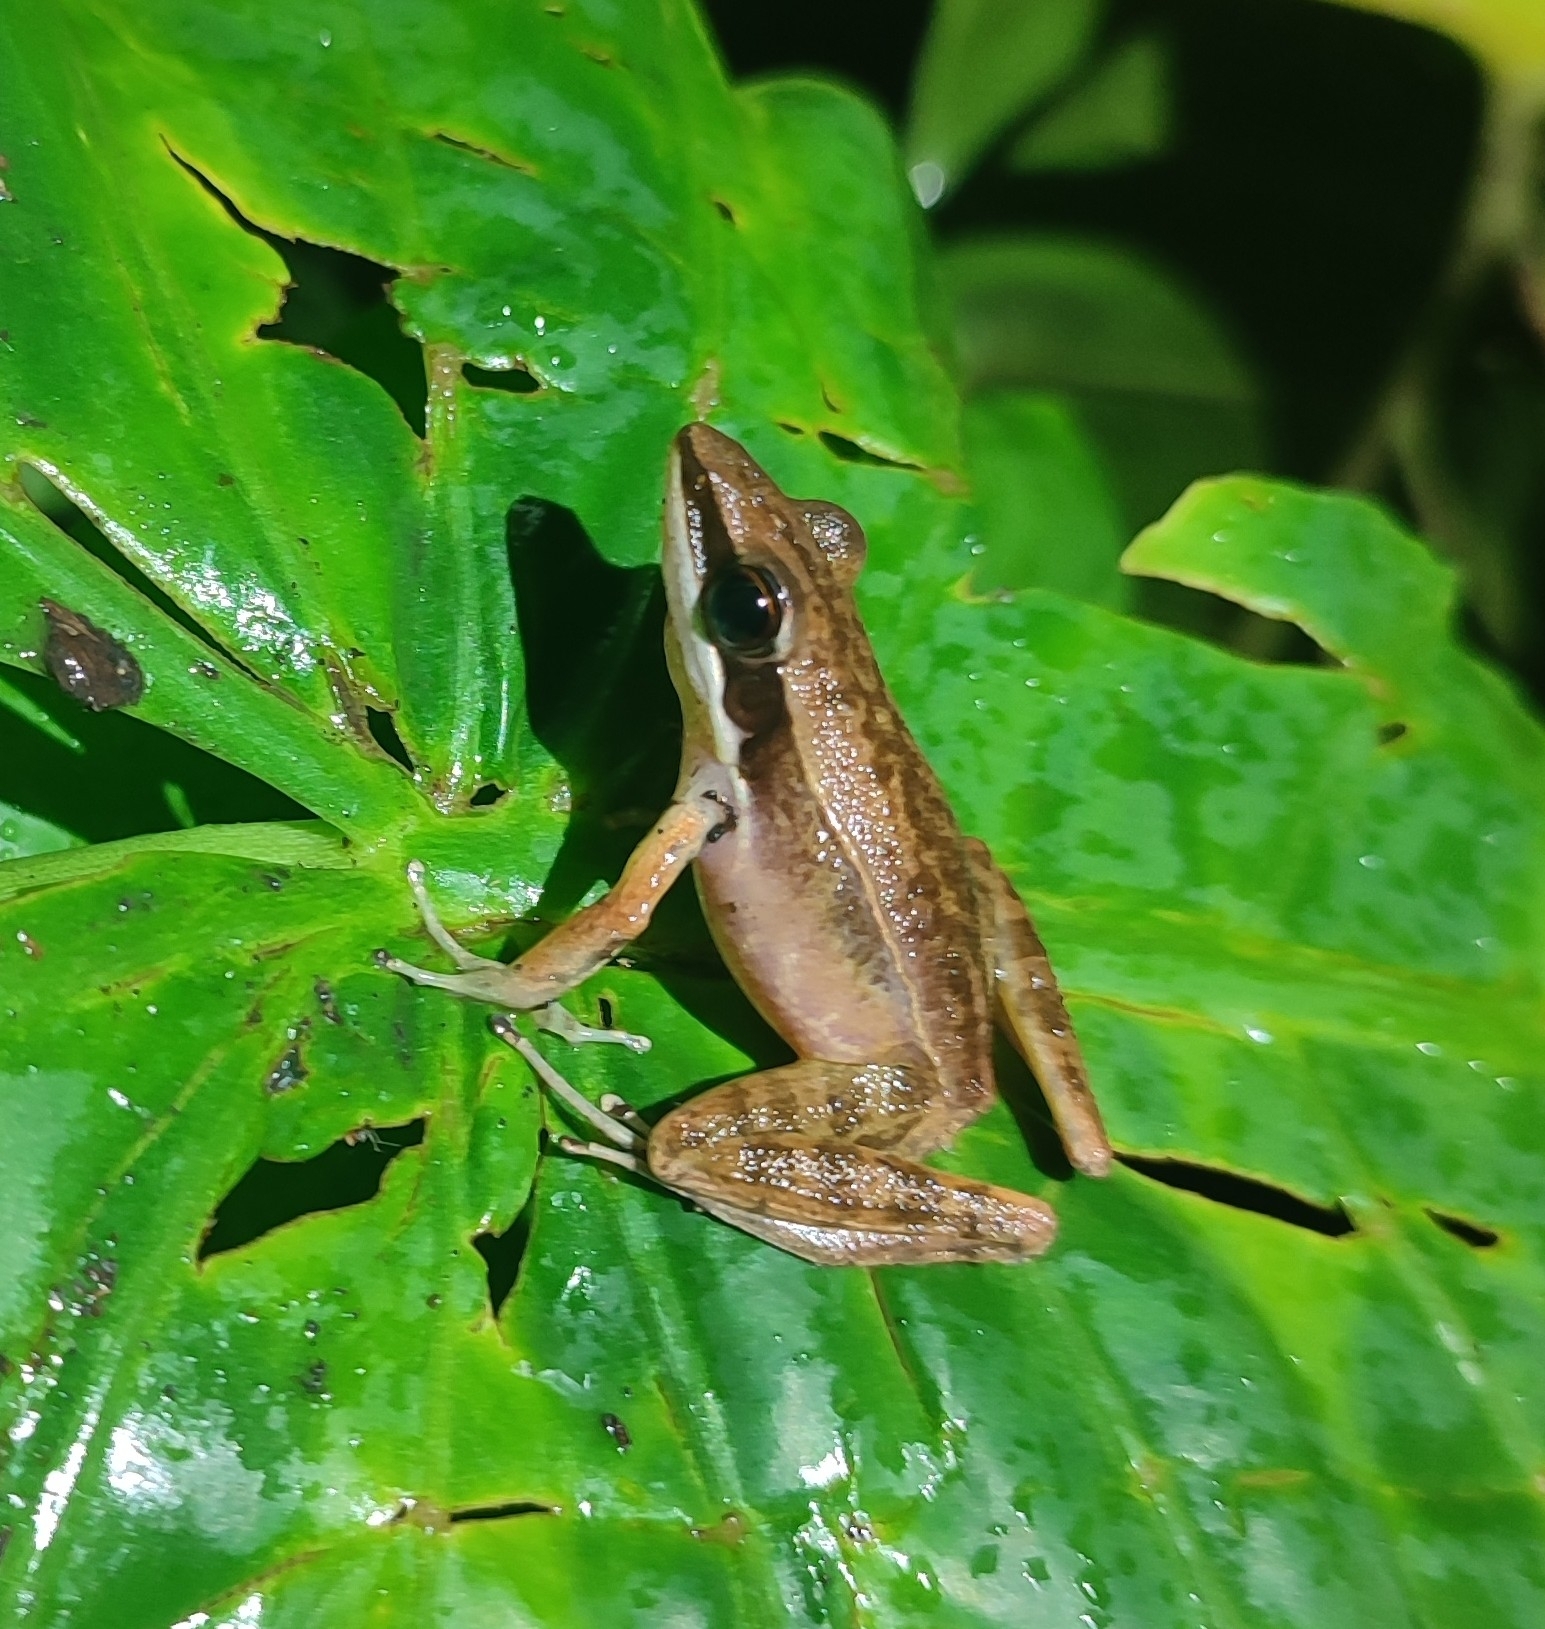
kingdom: Animalia
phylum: Chordata
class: Amphibia
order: Anura
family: Ranidae
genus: Bijurana
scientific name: Bijurana nicobariensis
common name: Cricket frog
